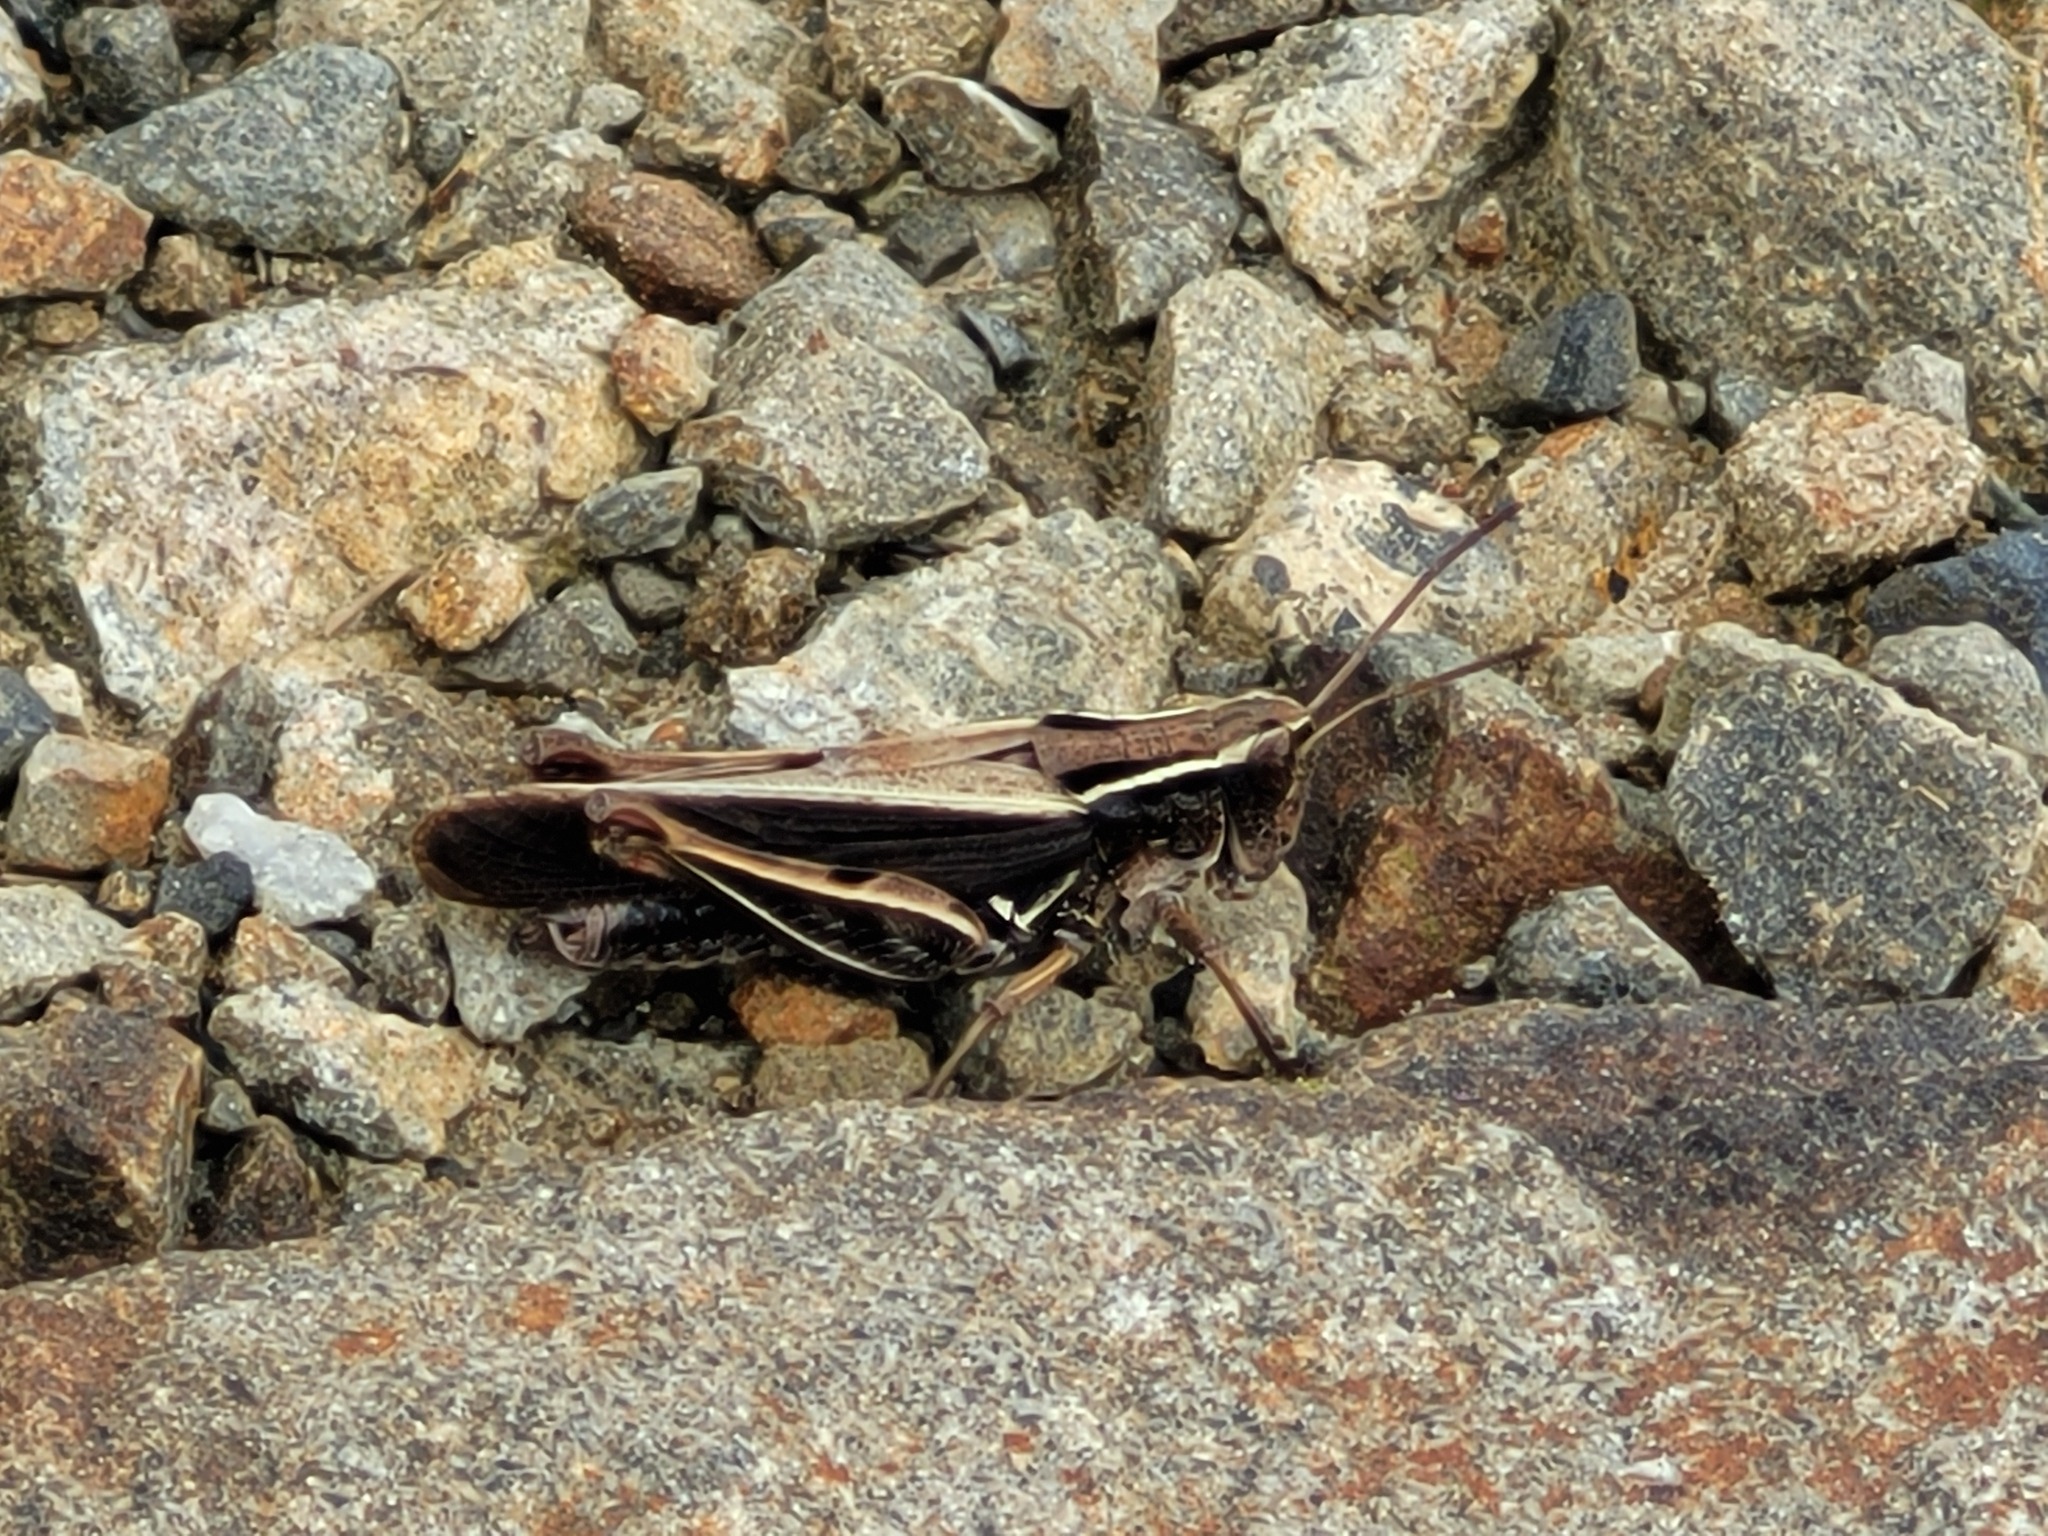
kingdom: Animalia
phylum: Arthropoda
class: Insecta
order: Orthoptera
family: Acrididae
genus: Phaulacridium
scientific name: Phaulacridium marginale
